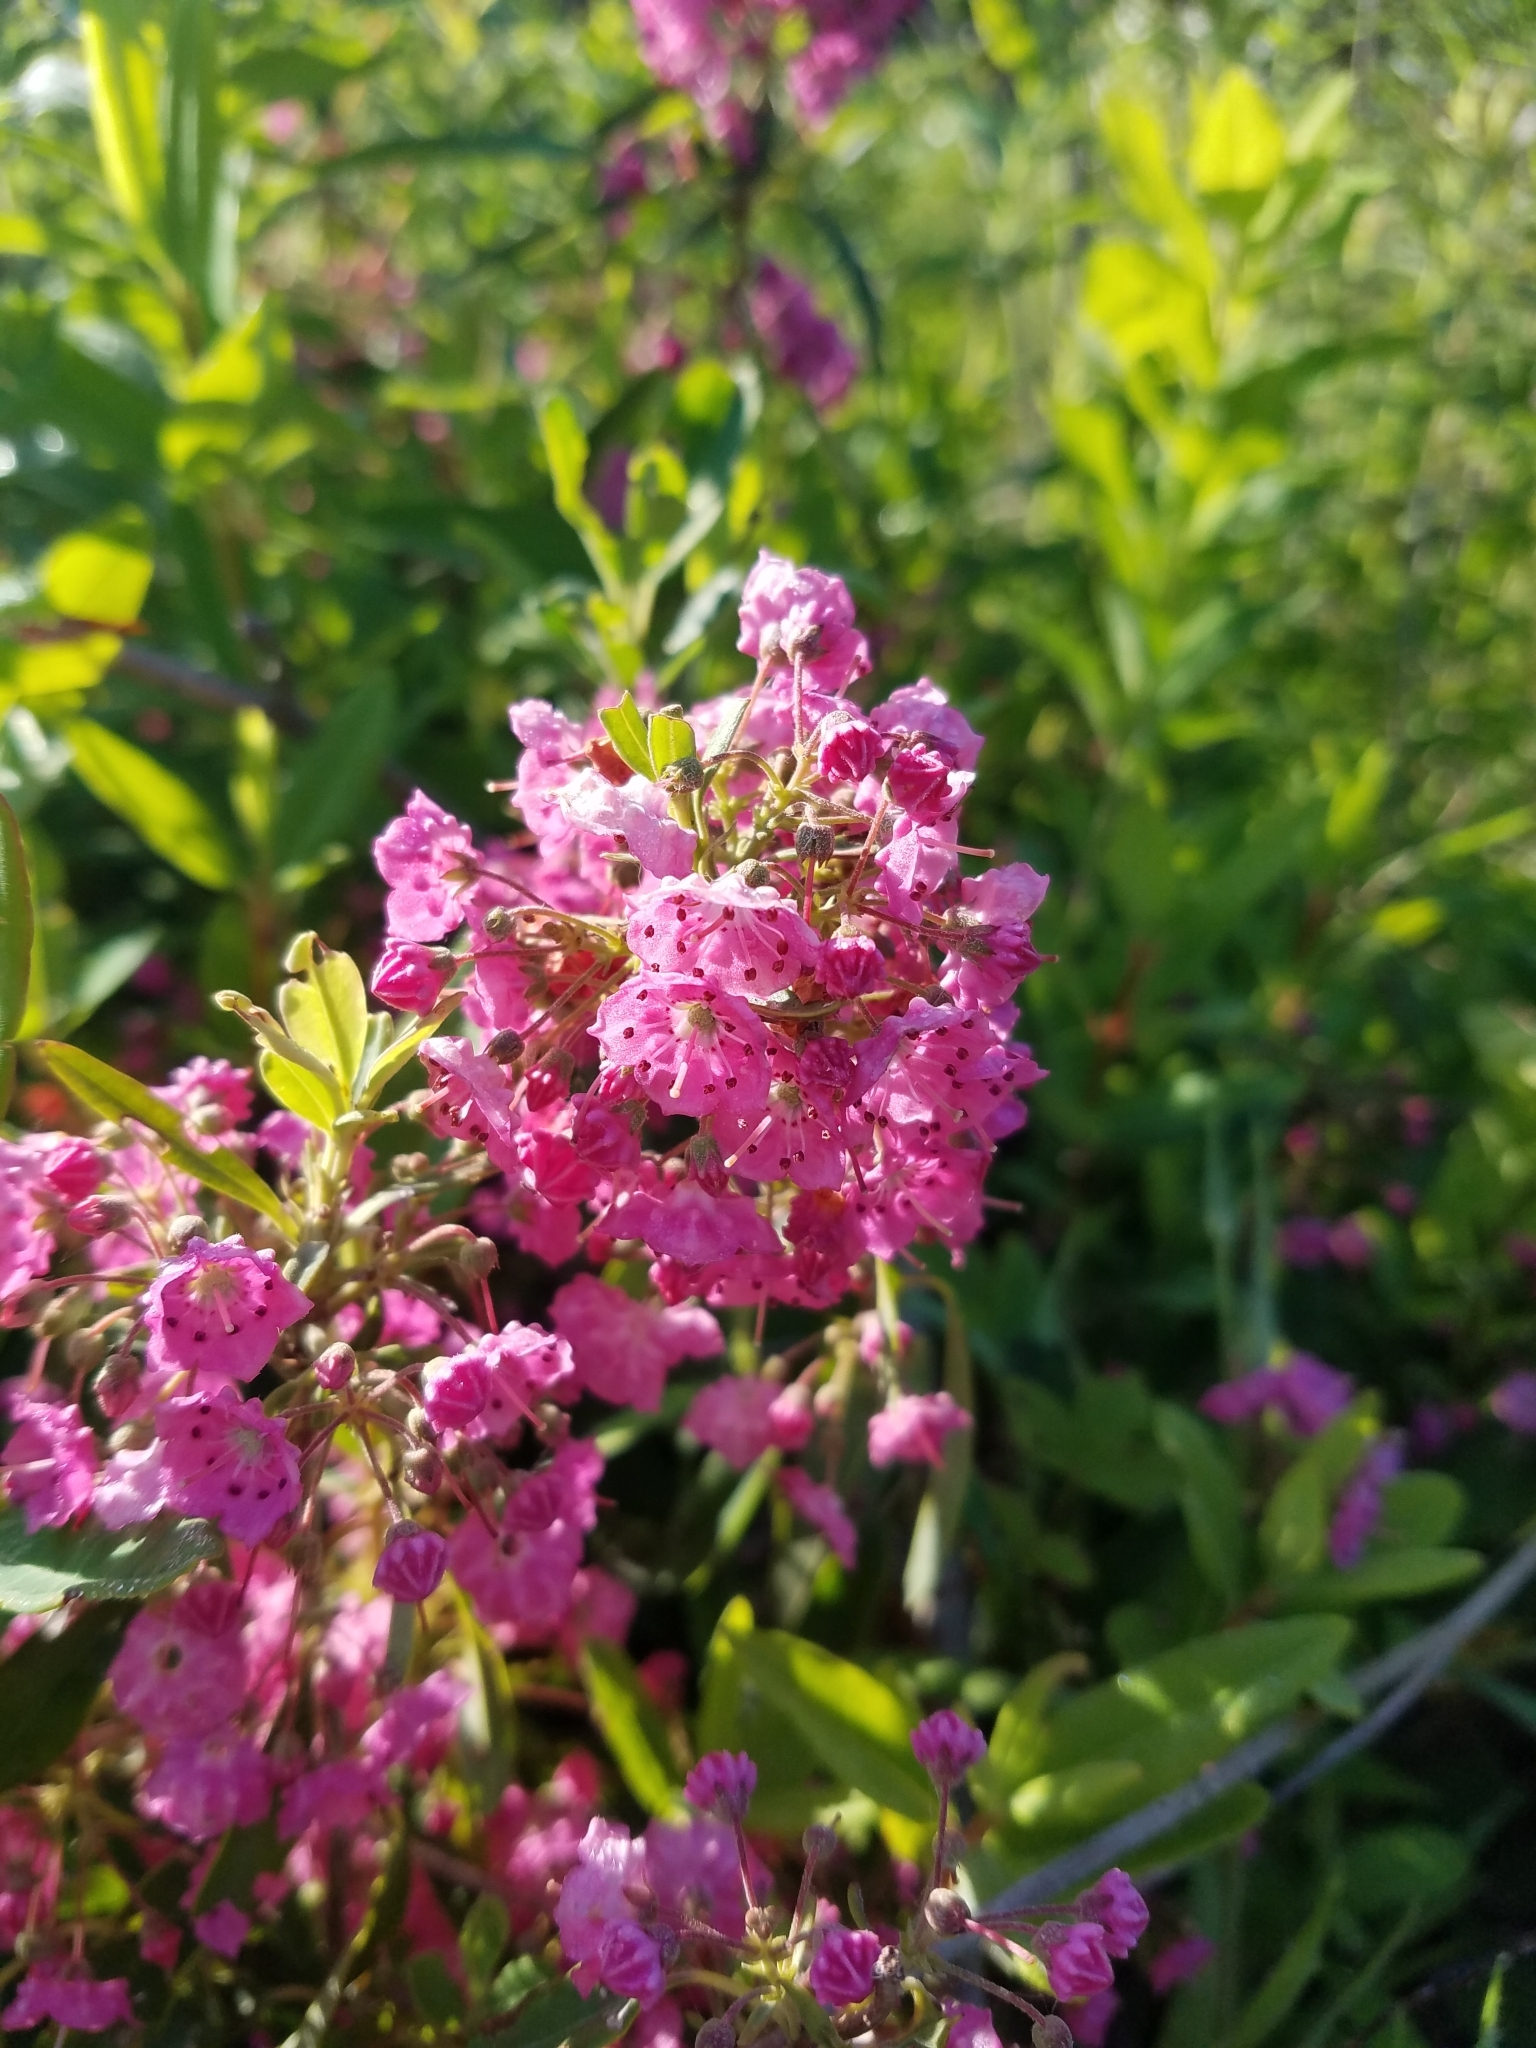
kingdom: Plantae
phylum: Tracheophyta
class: Magnoliopsida
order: Ericales
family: Ericaceae
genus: Kalmia
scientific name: Kalmia angustifolia
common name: Sheep-laurel
